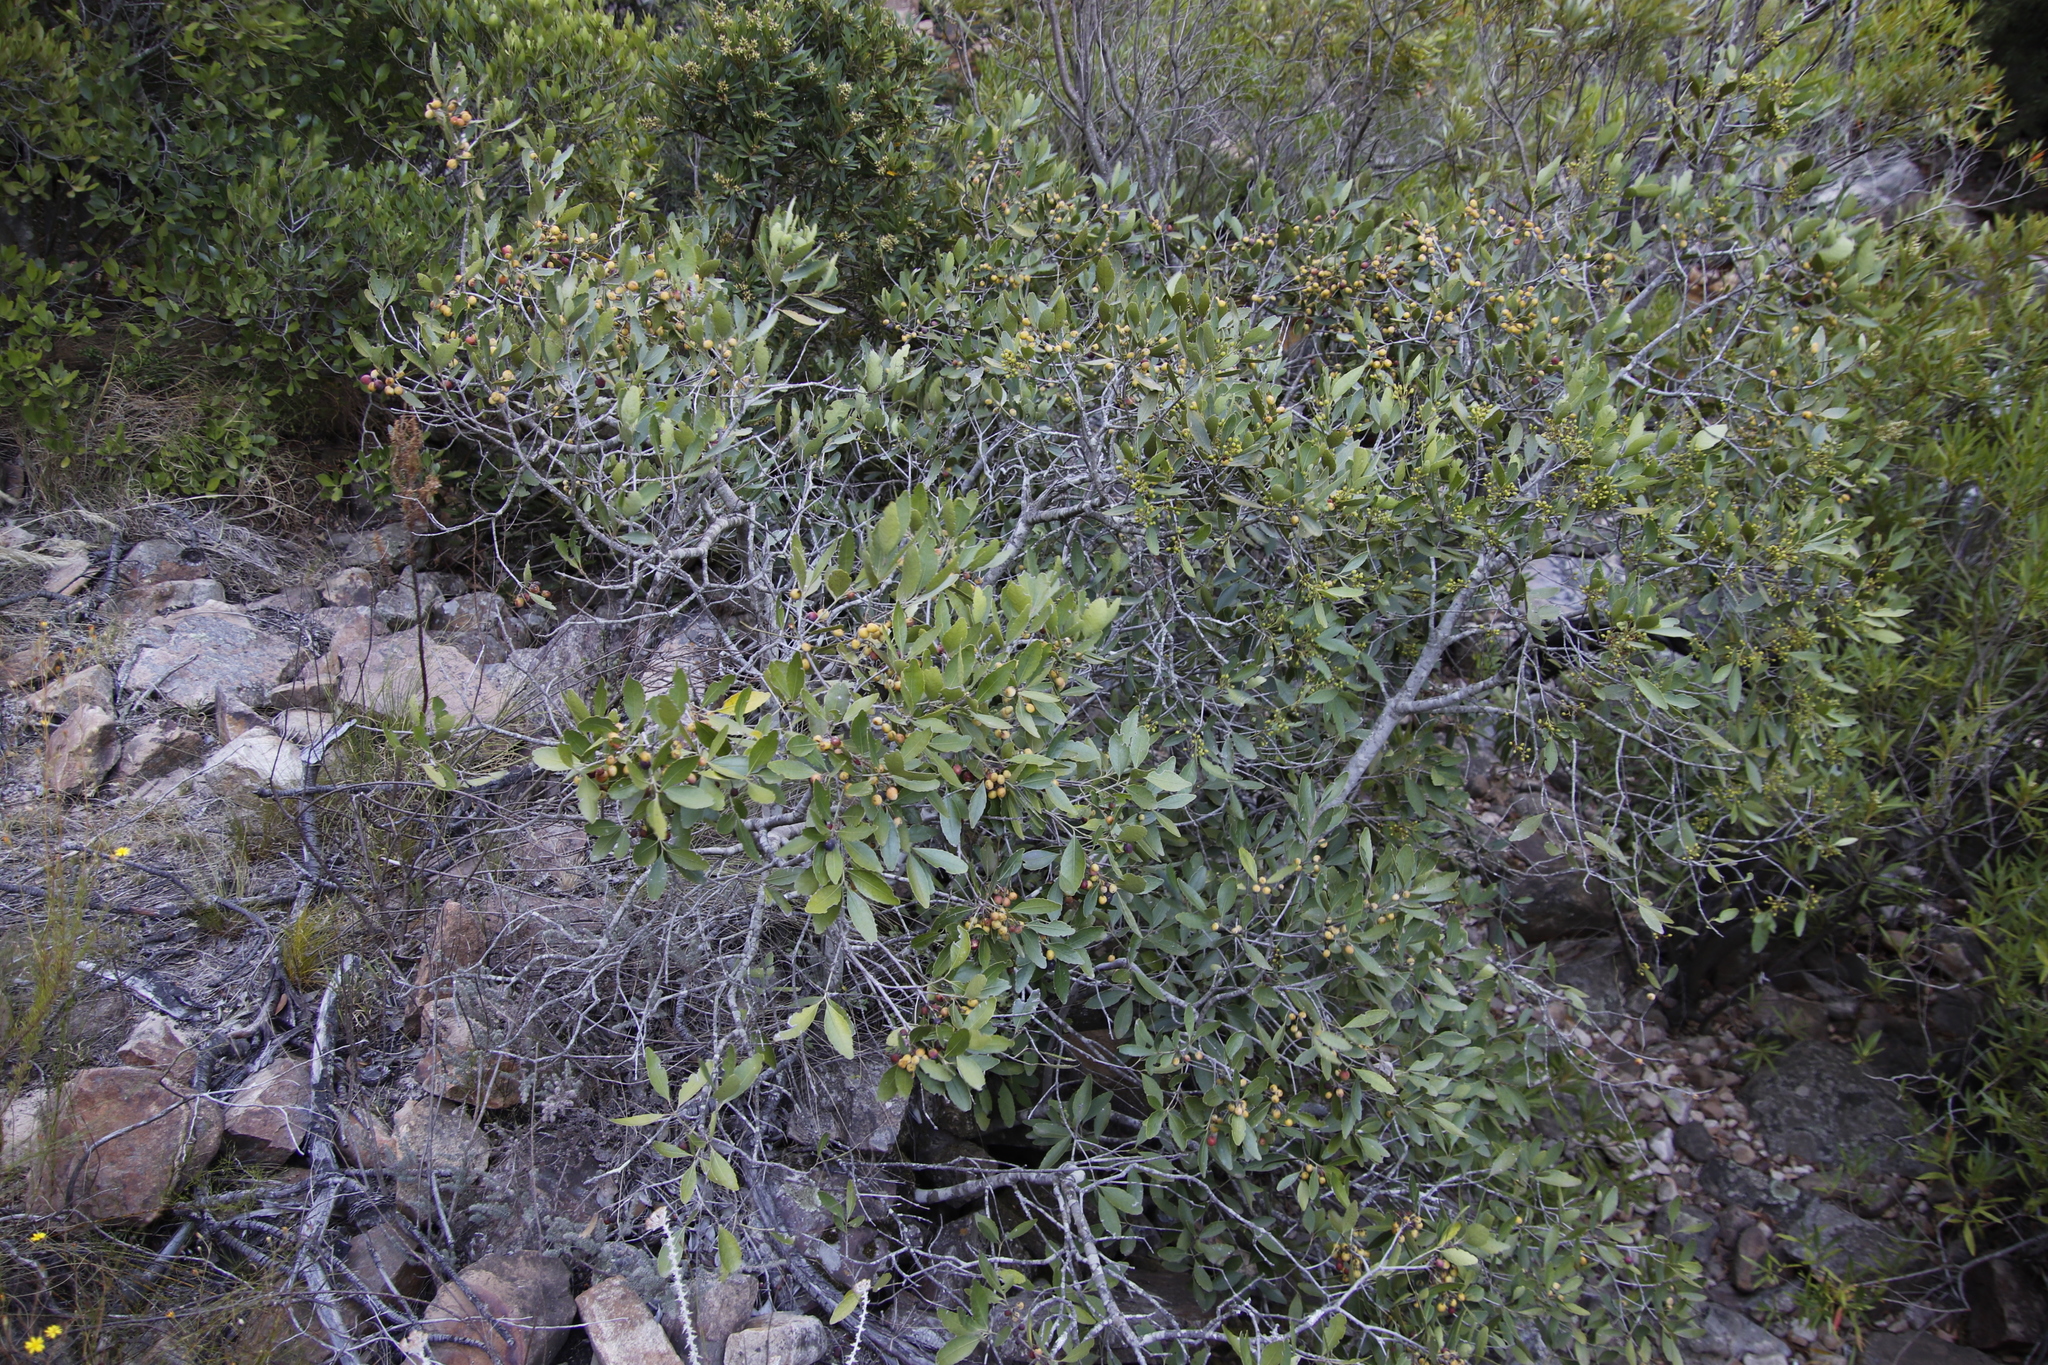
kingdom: Plantae
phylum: Tracheophyta
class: Magnoliopsida
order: Celastrales
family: Celastraceae
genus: Elaeodendron
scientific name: Elaeodendron schinoides
